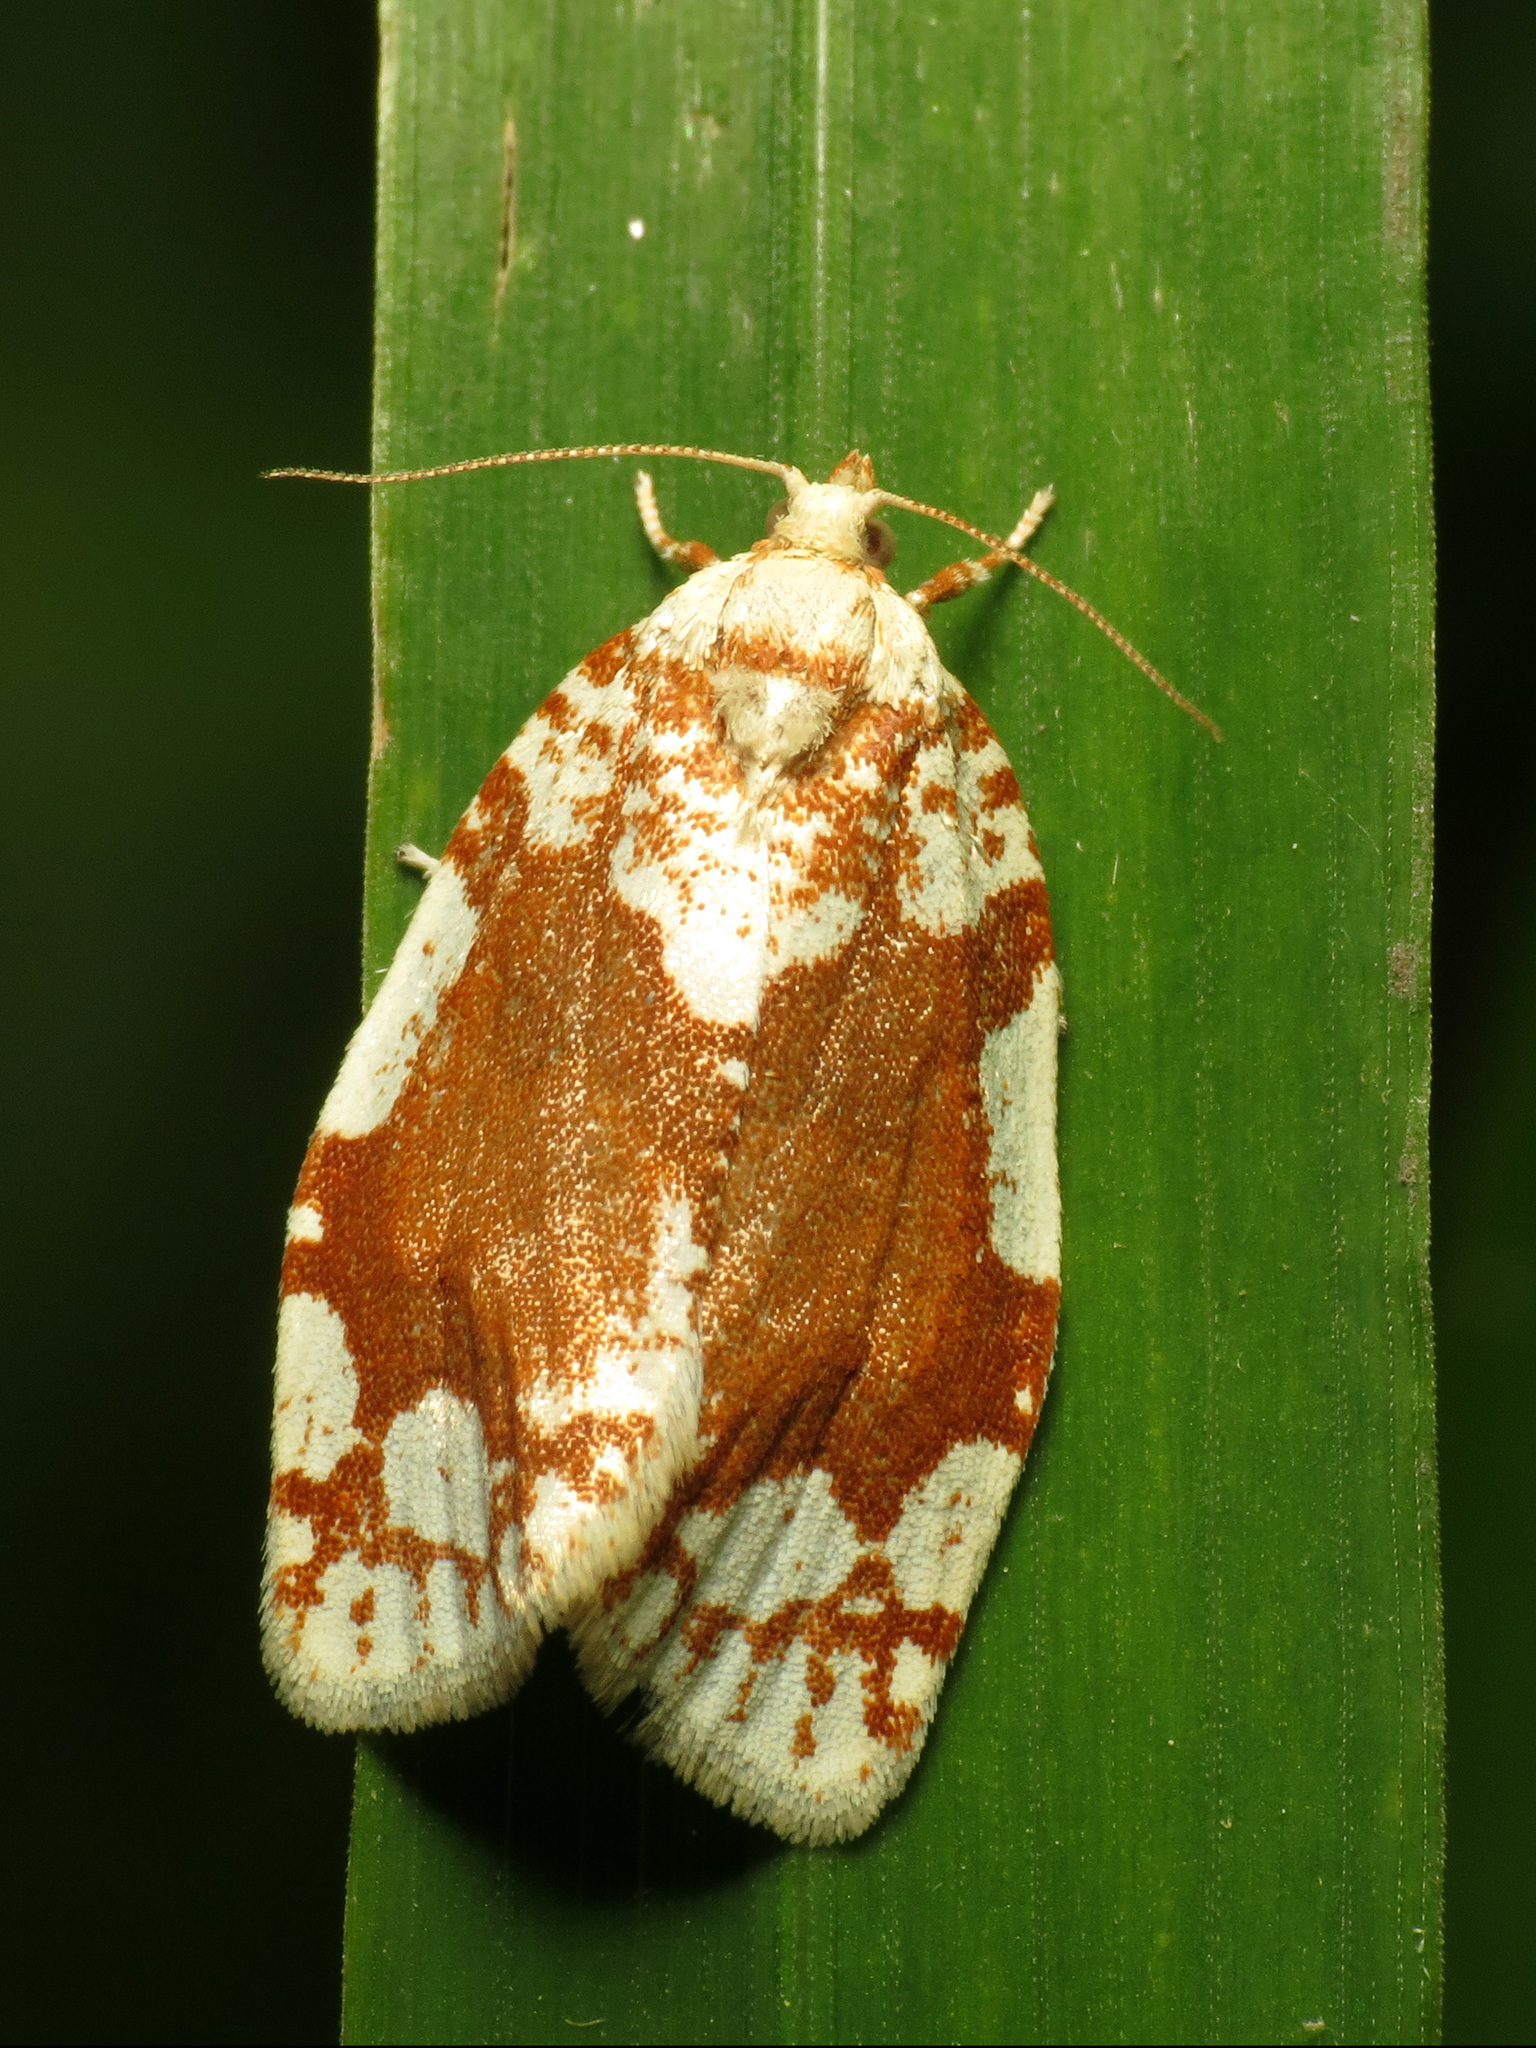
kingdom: Animalia
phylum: Arthropoda
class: Insecta
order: Lepidoptera
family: Tortricidae
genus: Argyrotaenia
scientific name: Argyrotaenia alisellana
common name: White-spotted leafroller moth
